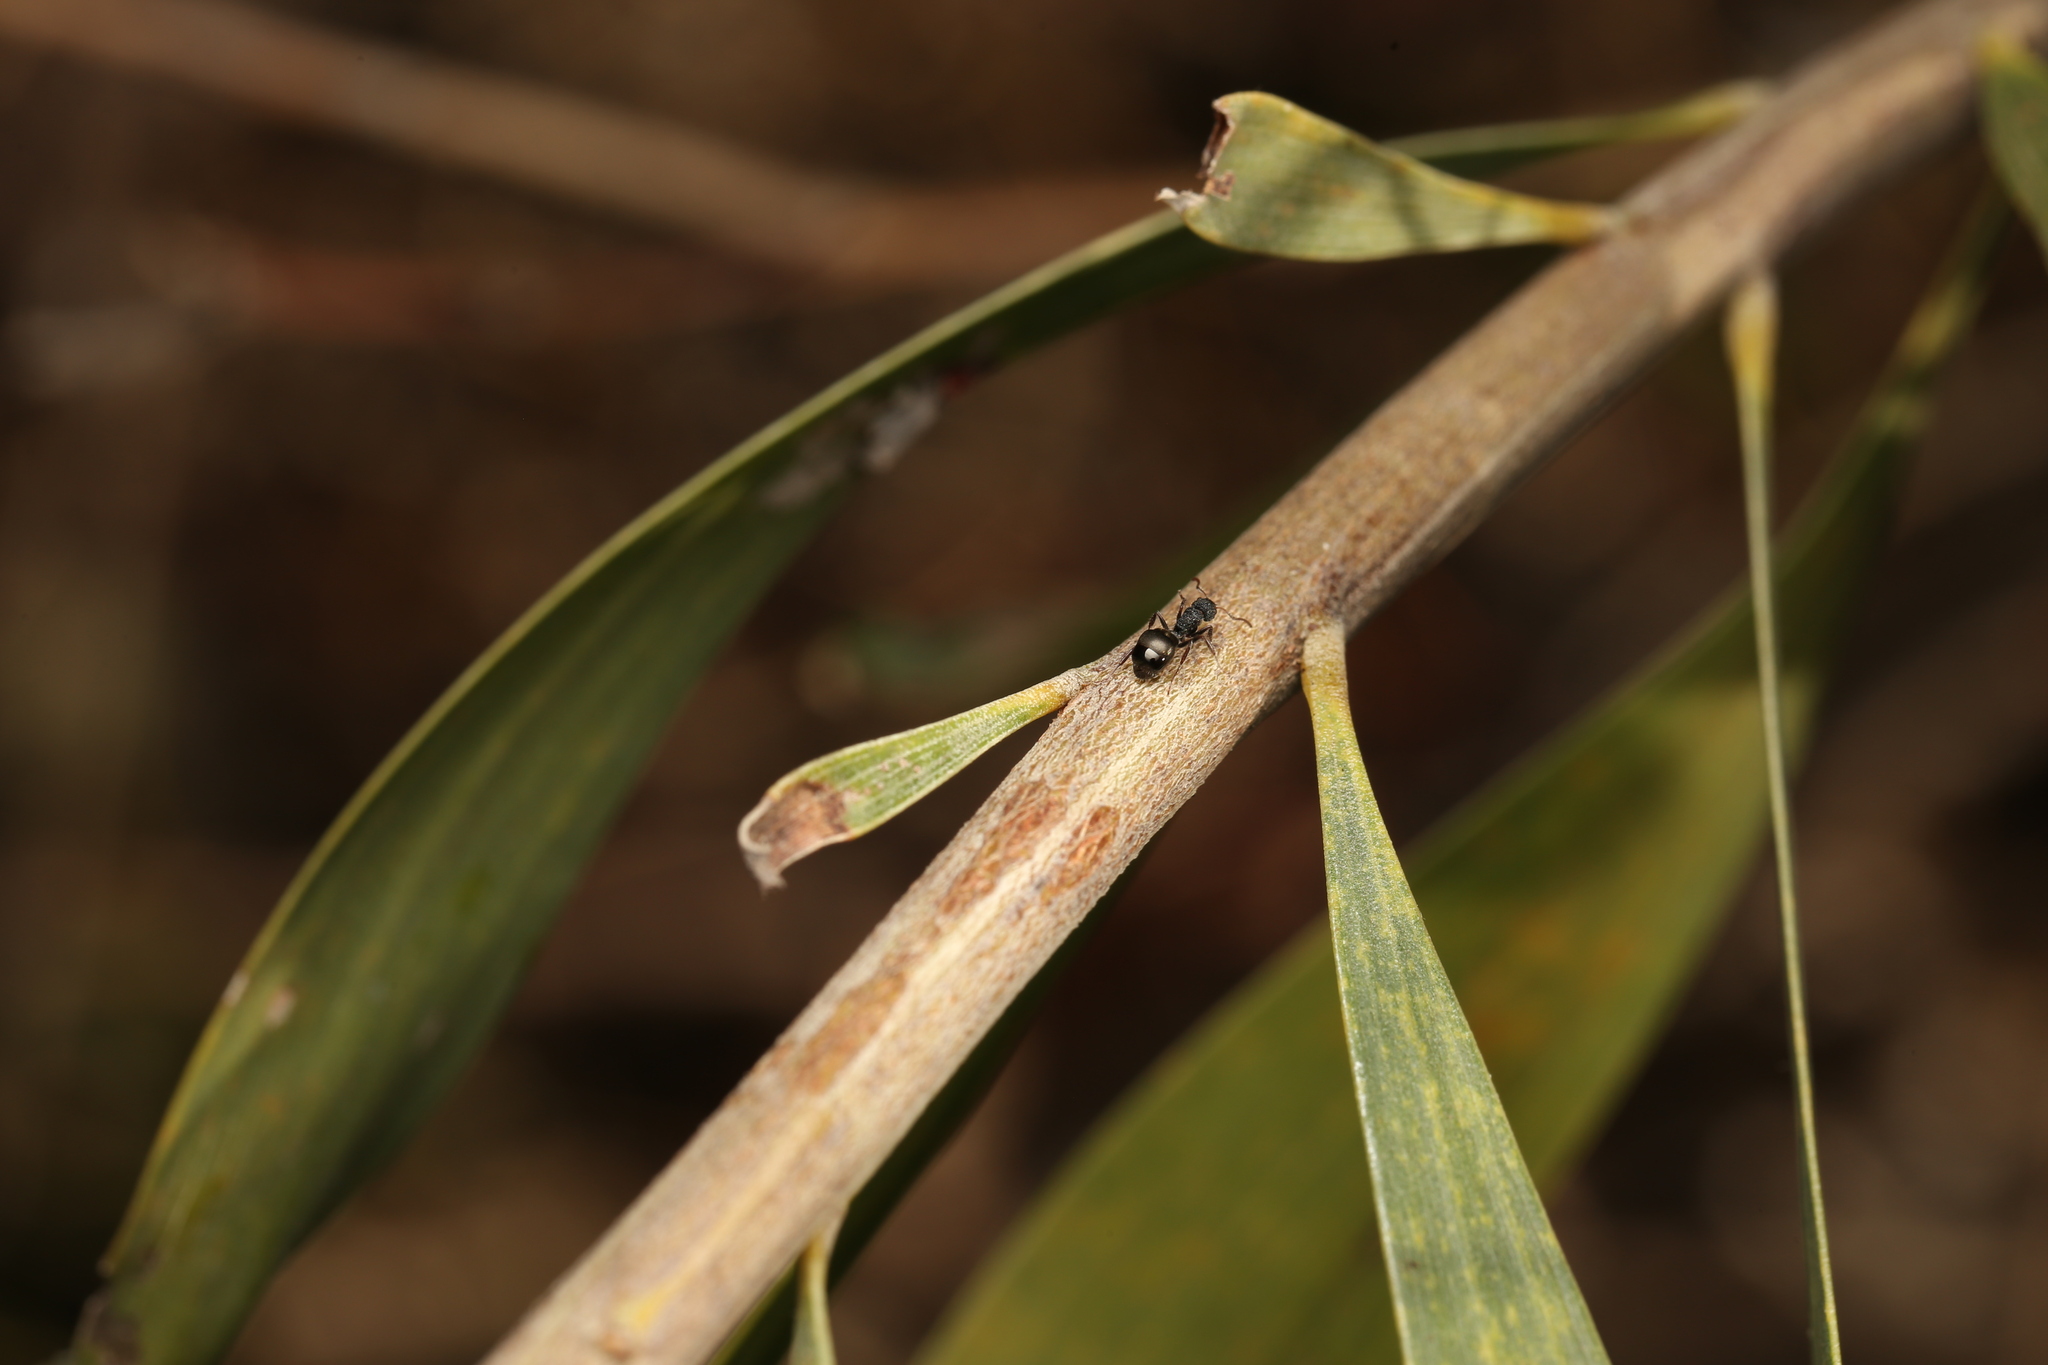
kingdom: Animalia
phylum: Arthropoda
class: Insecta
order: Hymenoptera
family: Formicidae
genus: Dolichoderus
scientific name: Dolichoderus scrobiculatus
